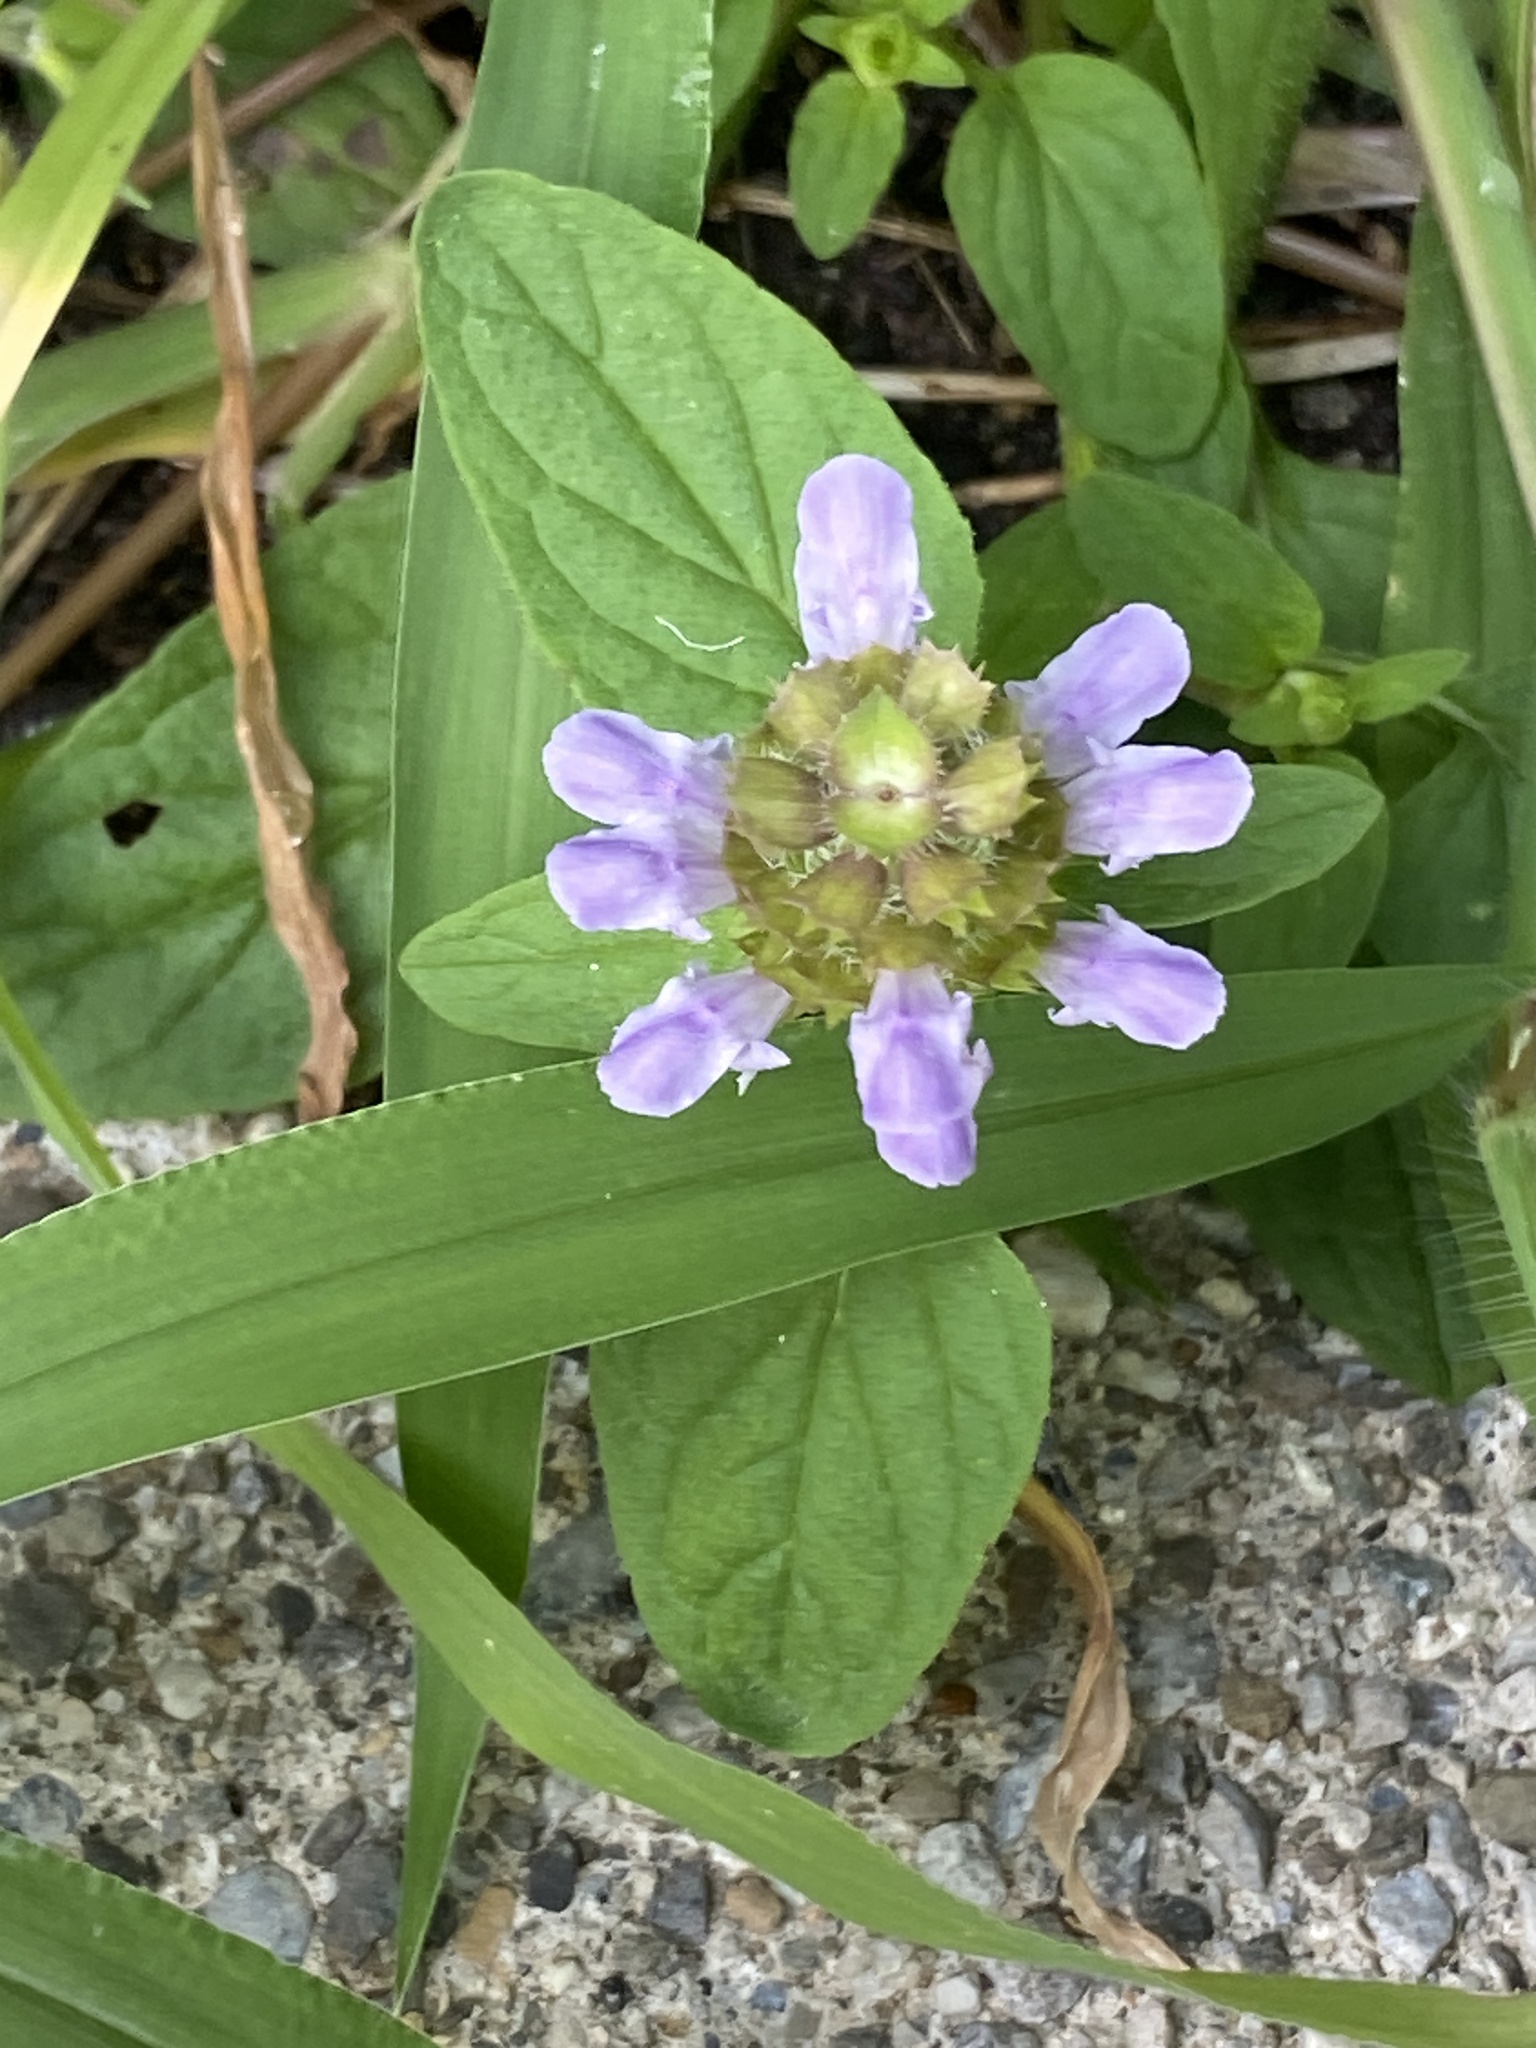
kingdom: Plantae
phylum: Tracheophyta
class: Magnoliopsida
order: Lamiales
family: Lamiaceae
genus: Prunella
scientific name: Prunella vulgaris
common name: Heal-all
